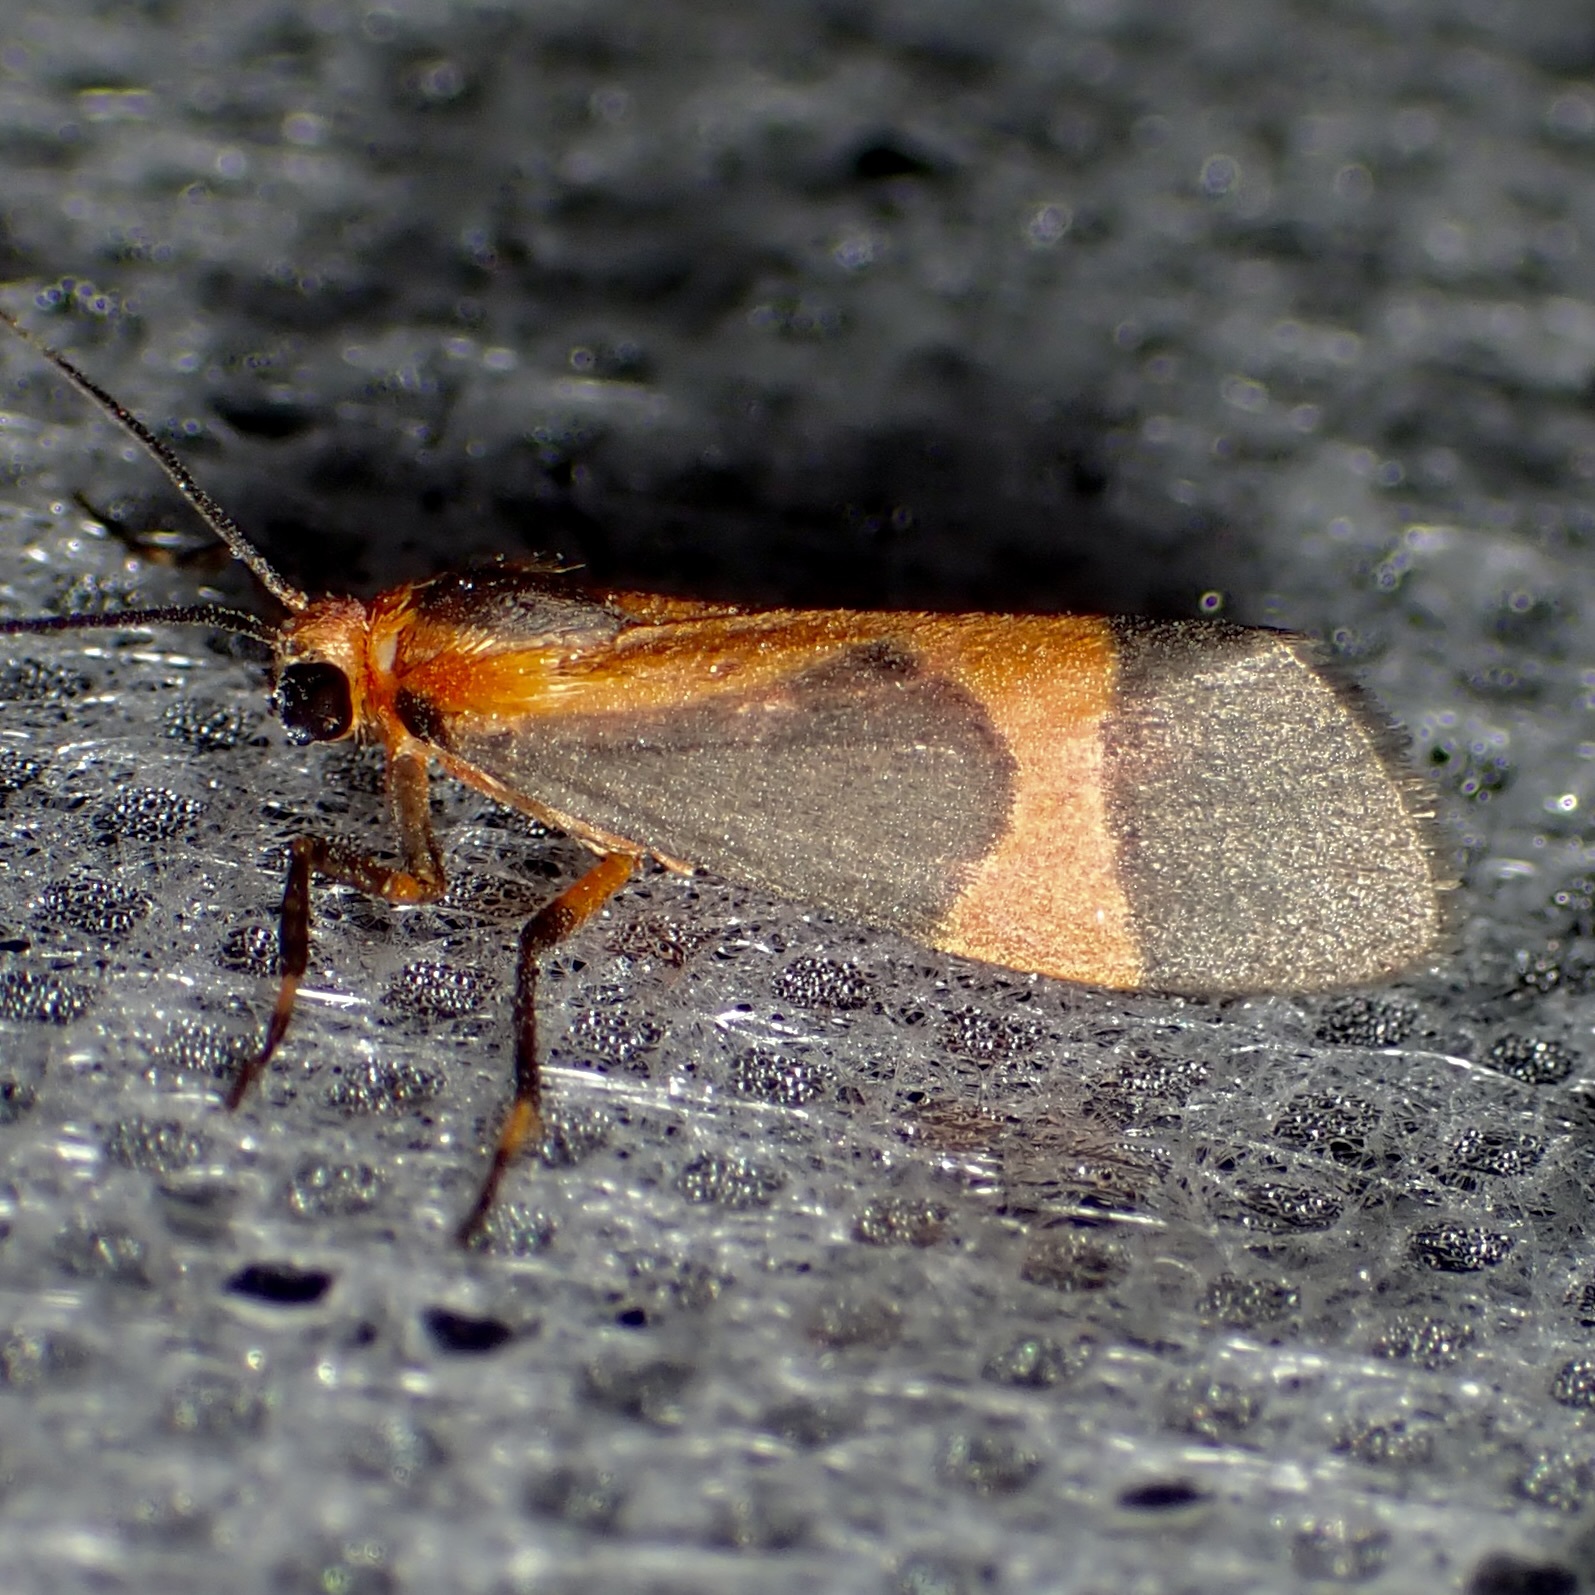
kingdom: Animalia
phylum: Arthropoda
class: Insecta
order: Lepidoptera
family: Erebidae
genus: Cisthene
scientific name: Cisthene martini
